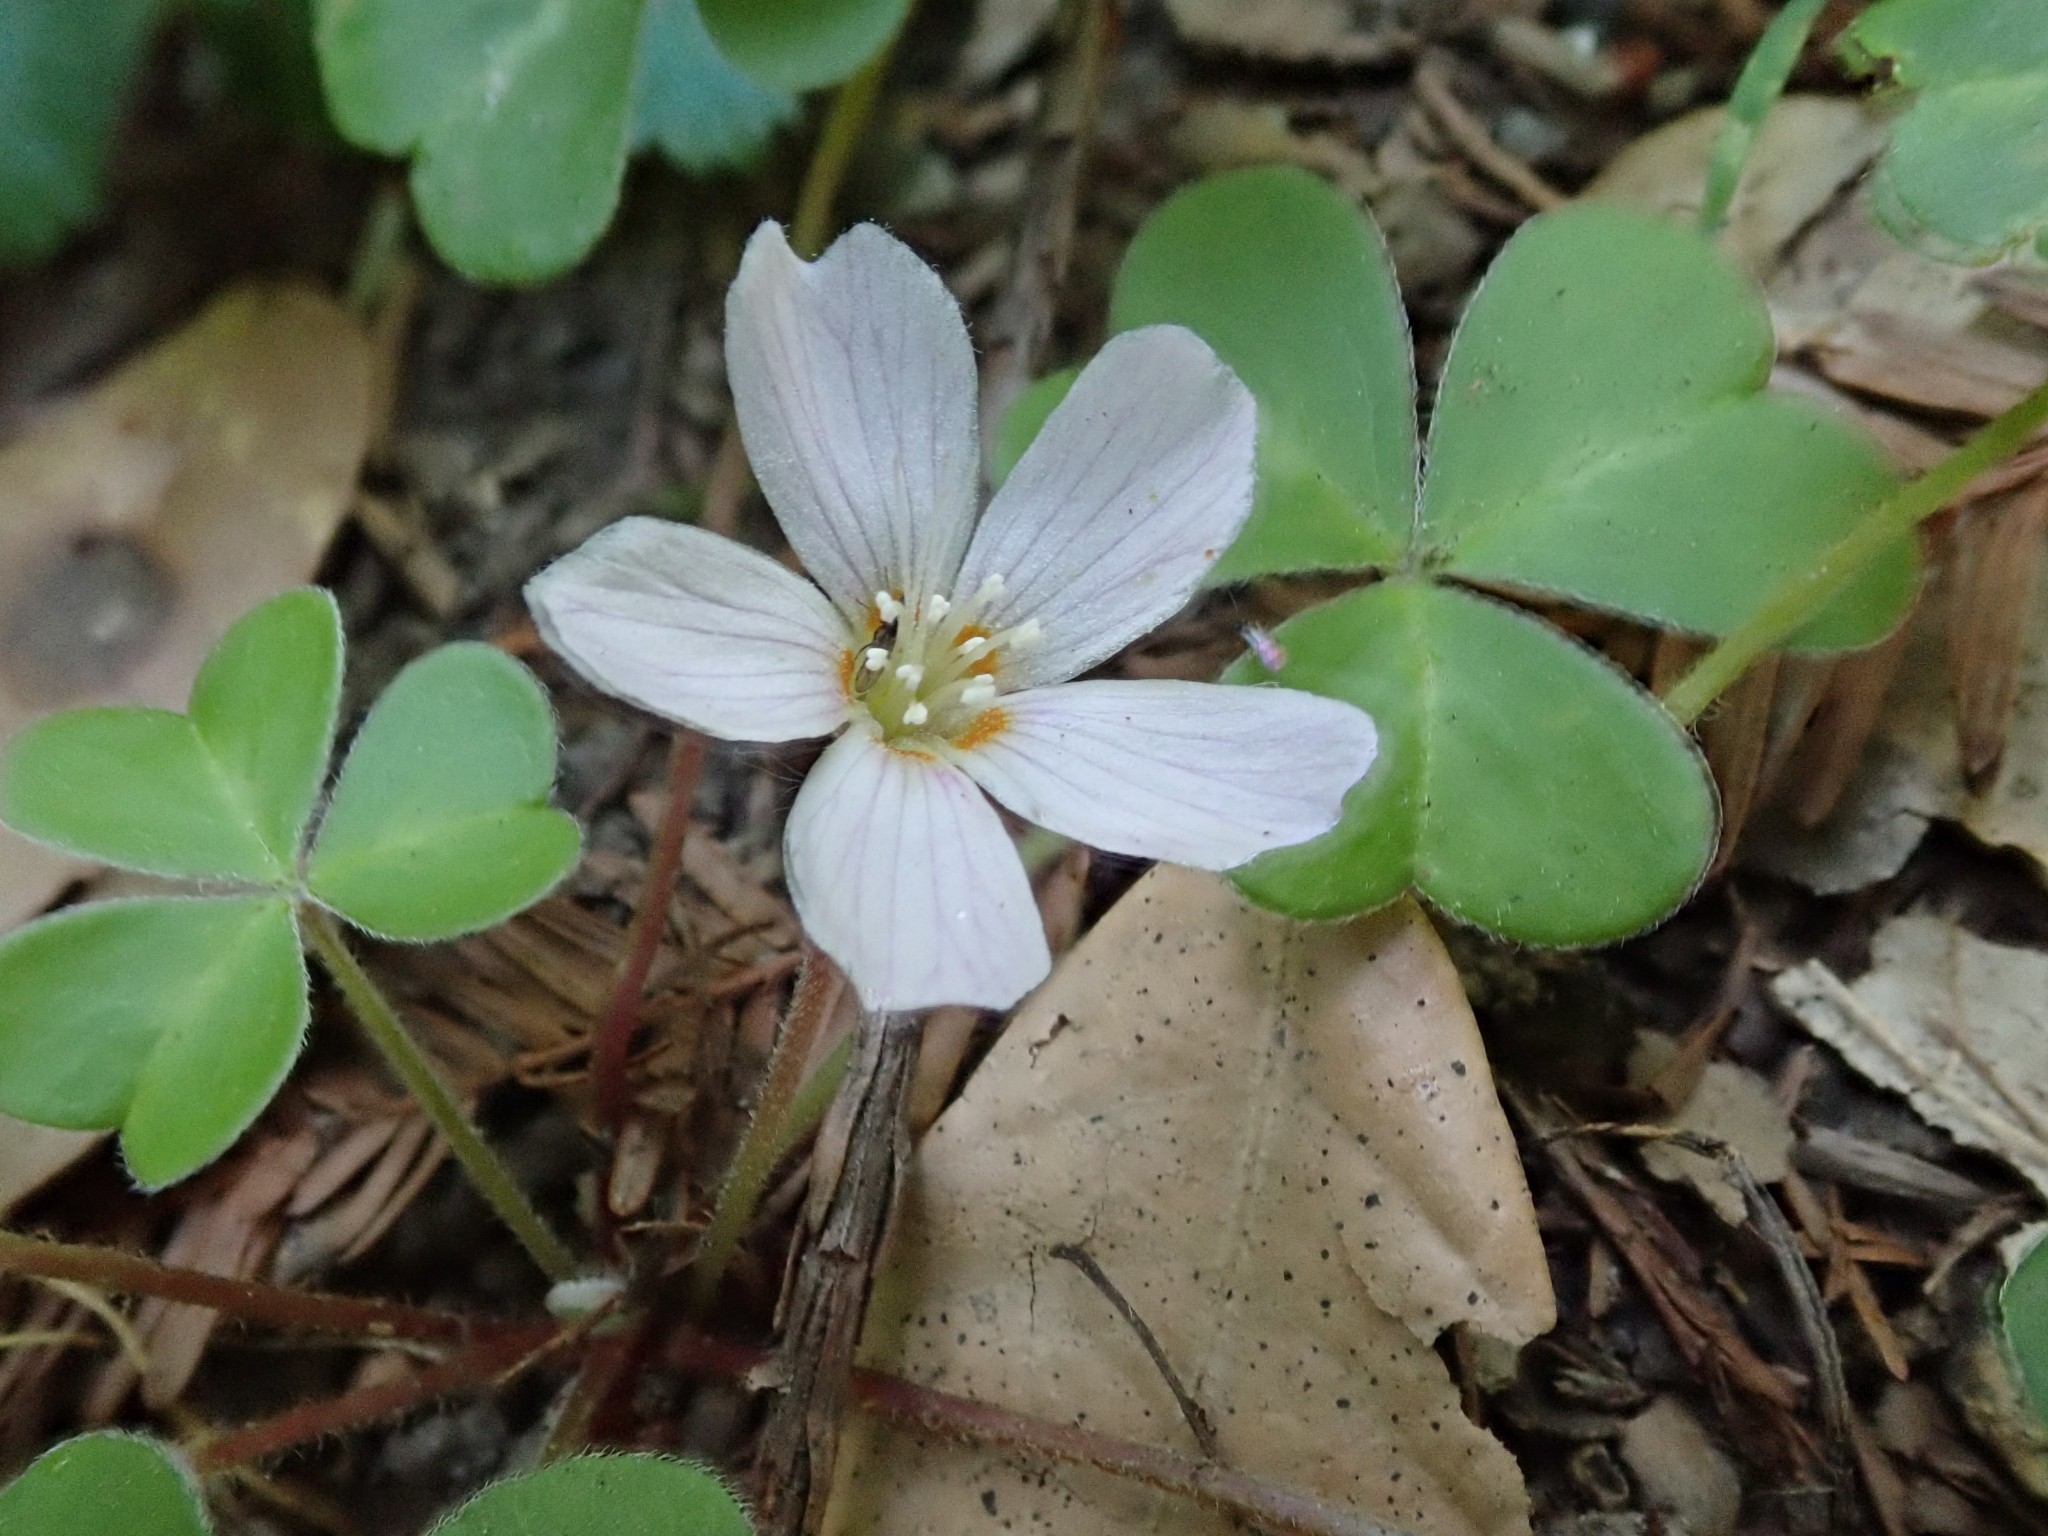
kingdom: Plantae
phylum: Tracheophyta
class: Magnoliopsida
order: Oxalidales
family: Oxalidaceae
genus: Oxalis
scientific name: Oxalis oregana
